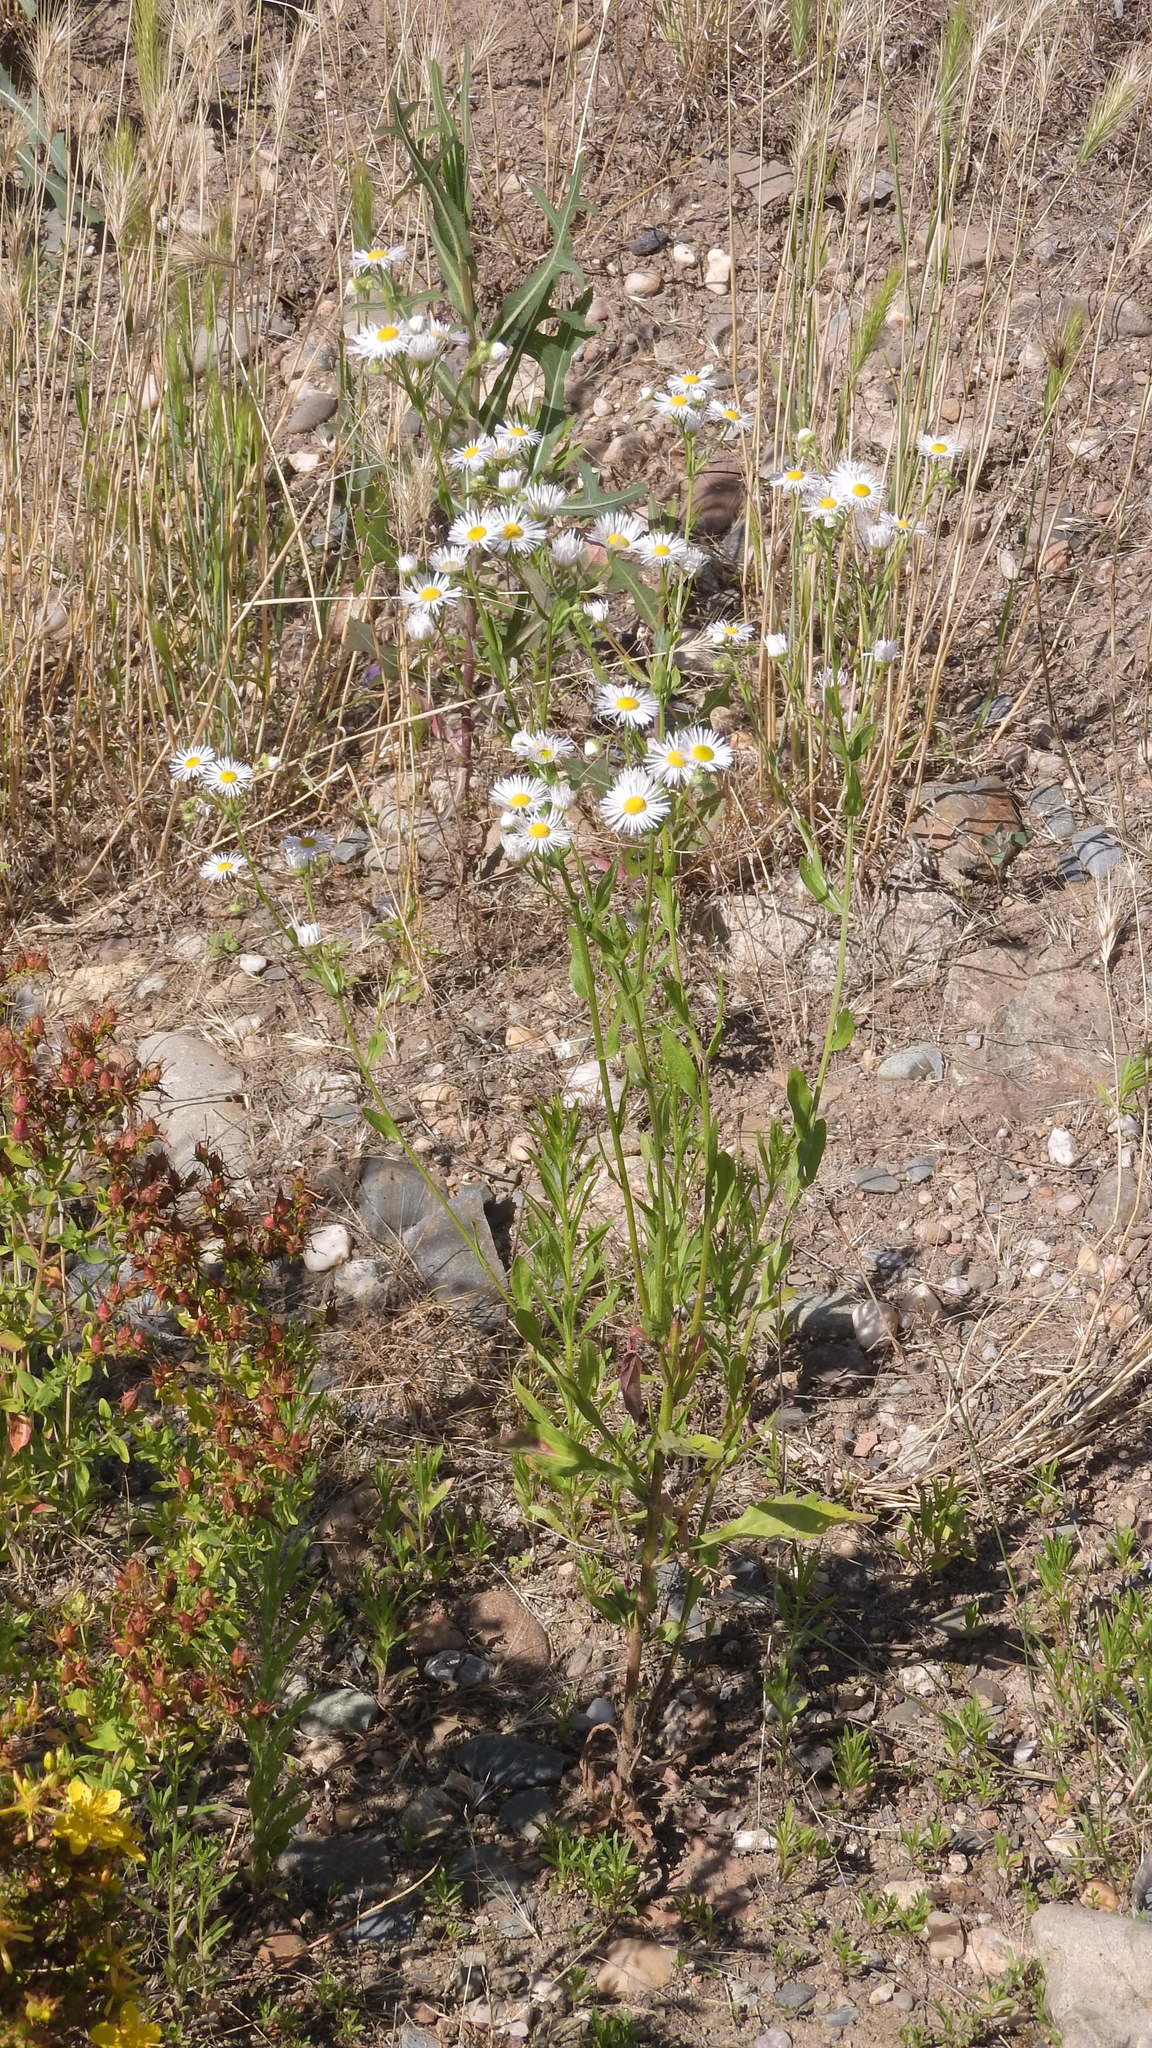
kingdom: Plantae
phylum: Tracheophyta
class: Magnoliopsida
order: Asterales
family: Asteraceae
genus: Erigeron
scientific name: Erigeron annuus
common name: Tall fleabane
